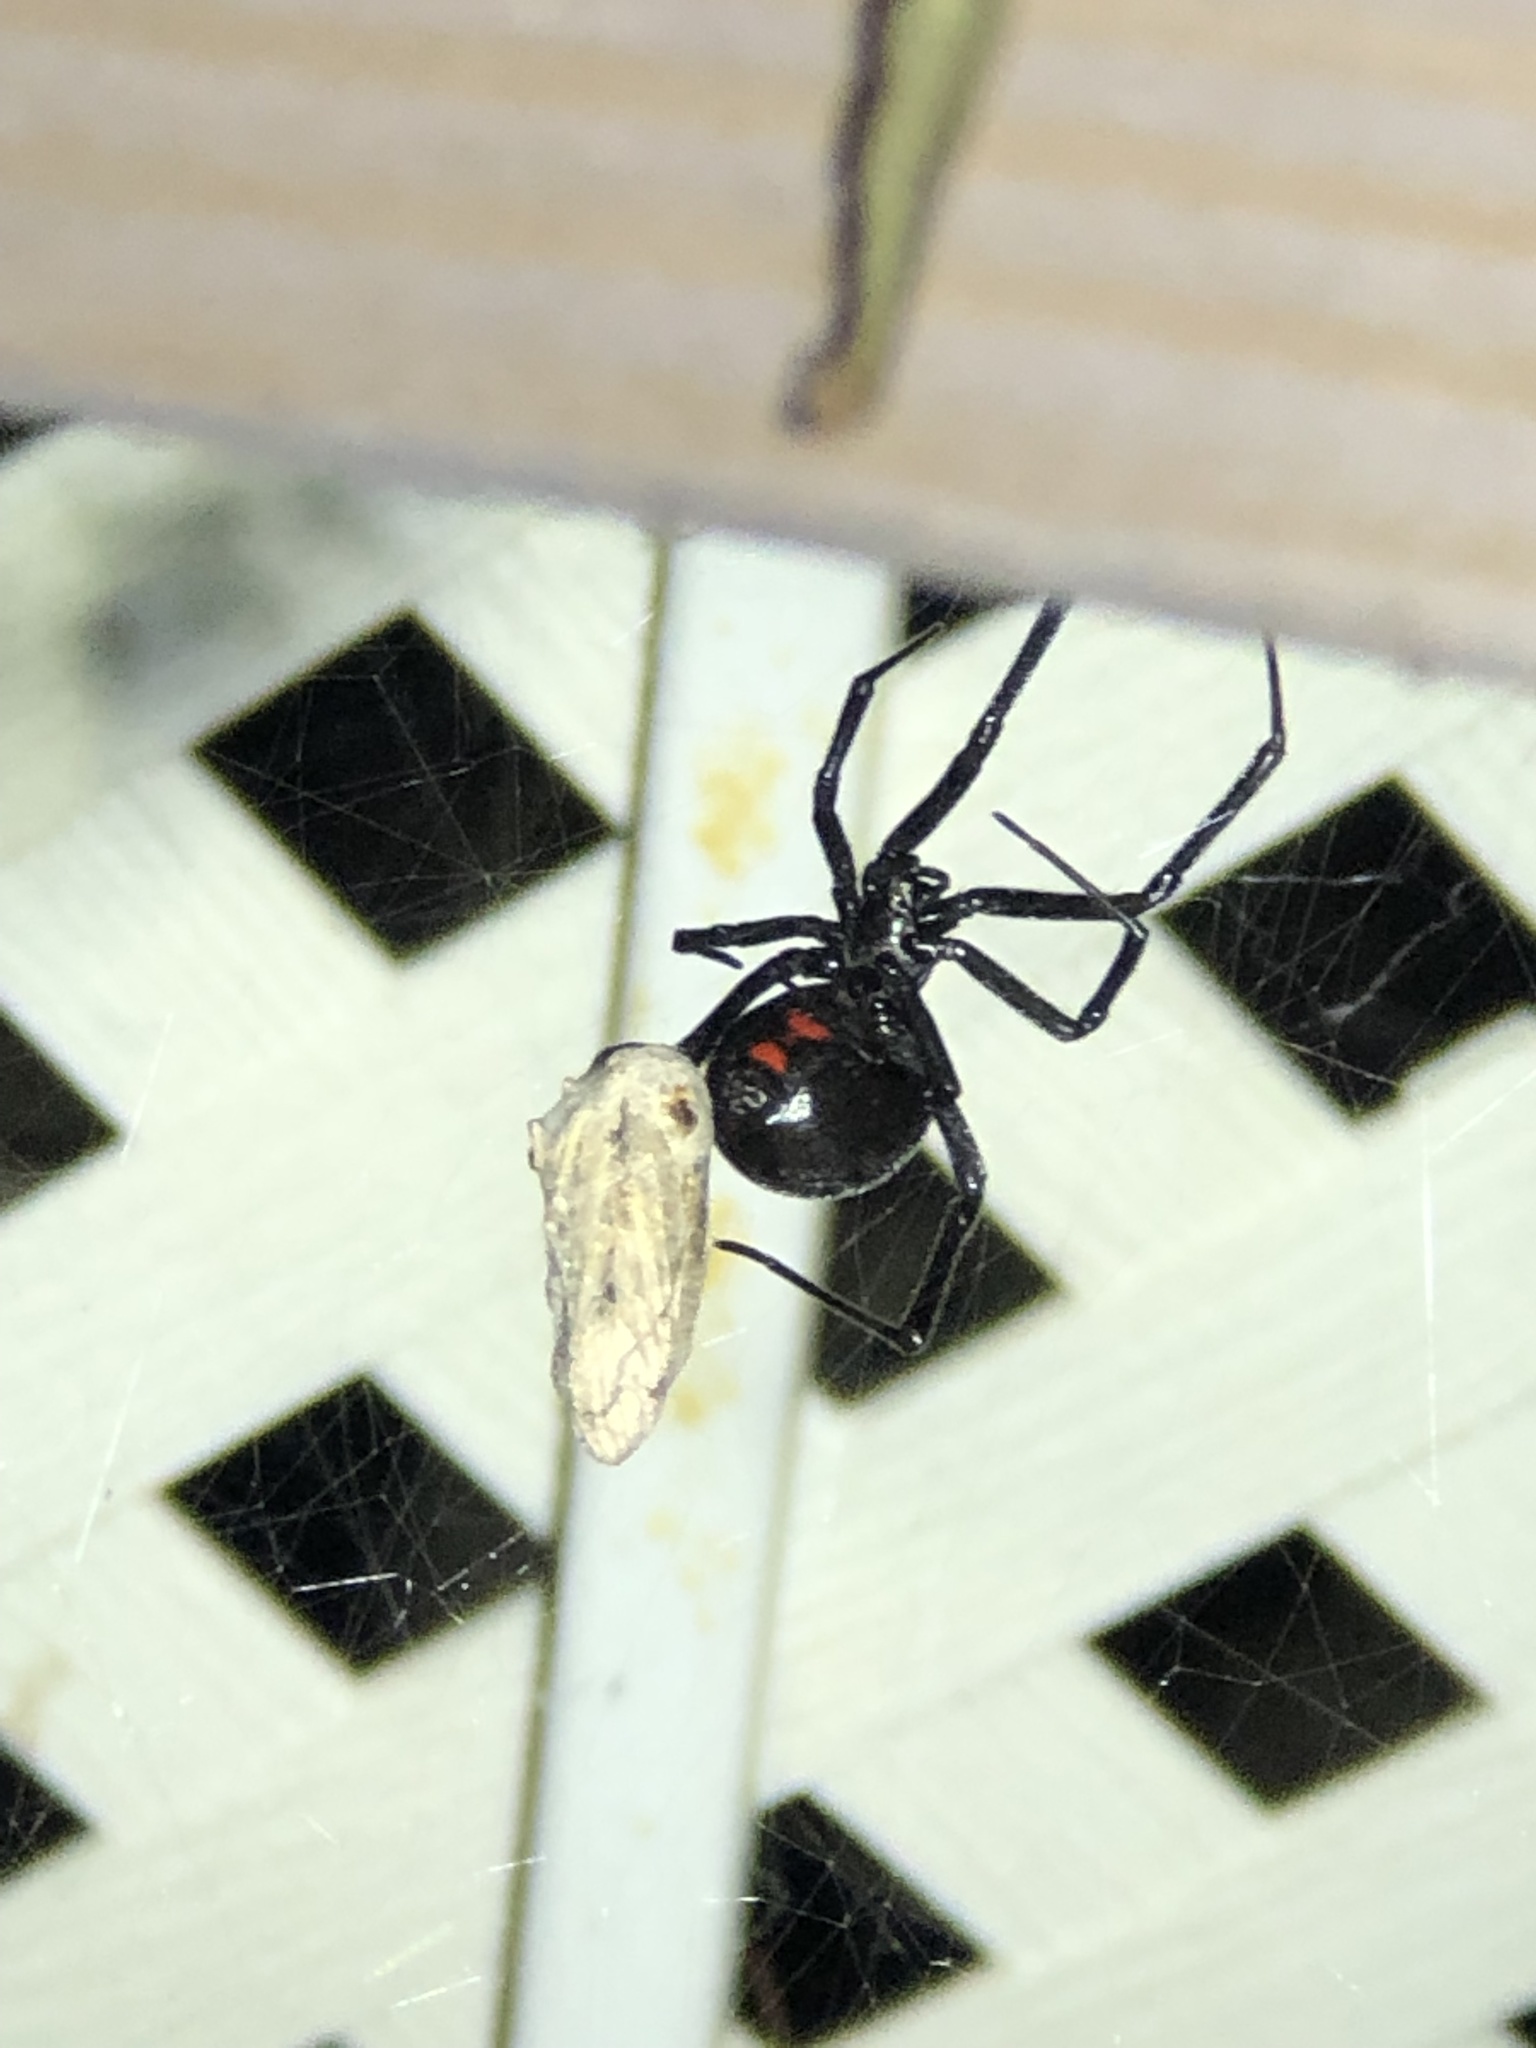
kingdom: Animalia
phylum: Arthropoda
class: Arachnida
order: Araneae
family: Theridiidae
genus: Latrodectus
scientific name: Latrodectus hesperus
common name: Western black widow
